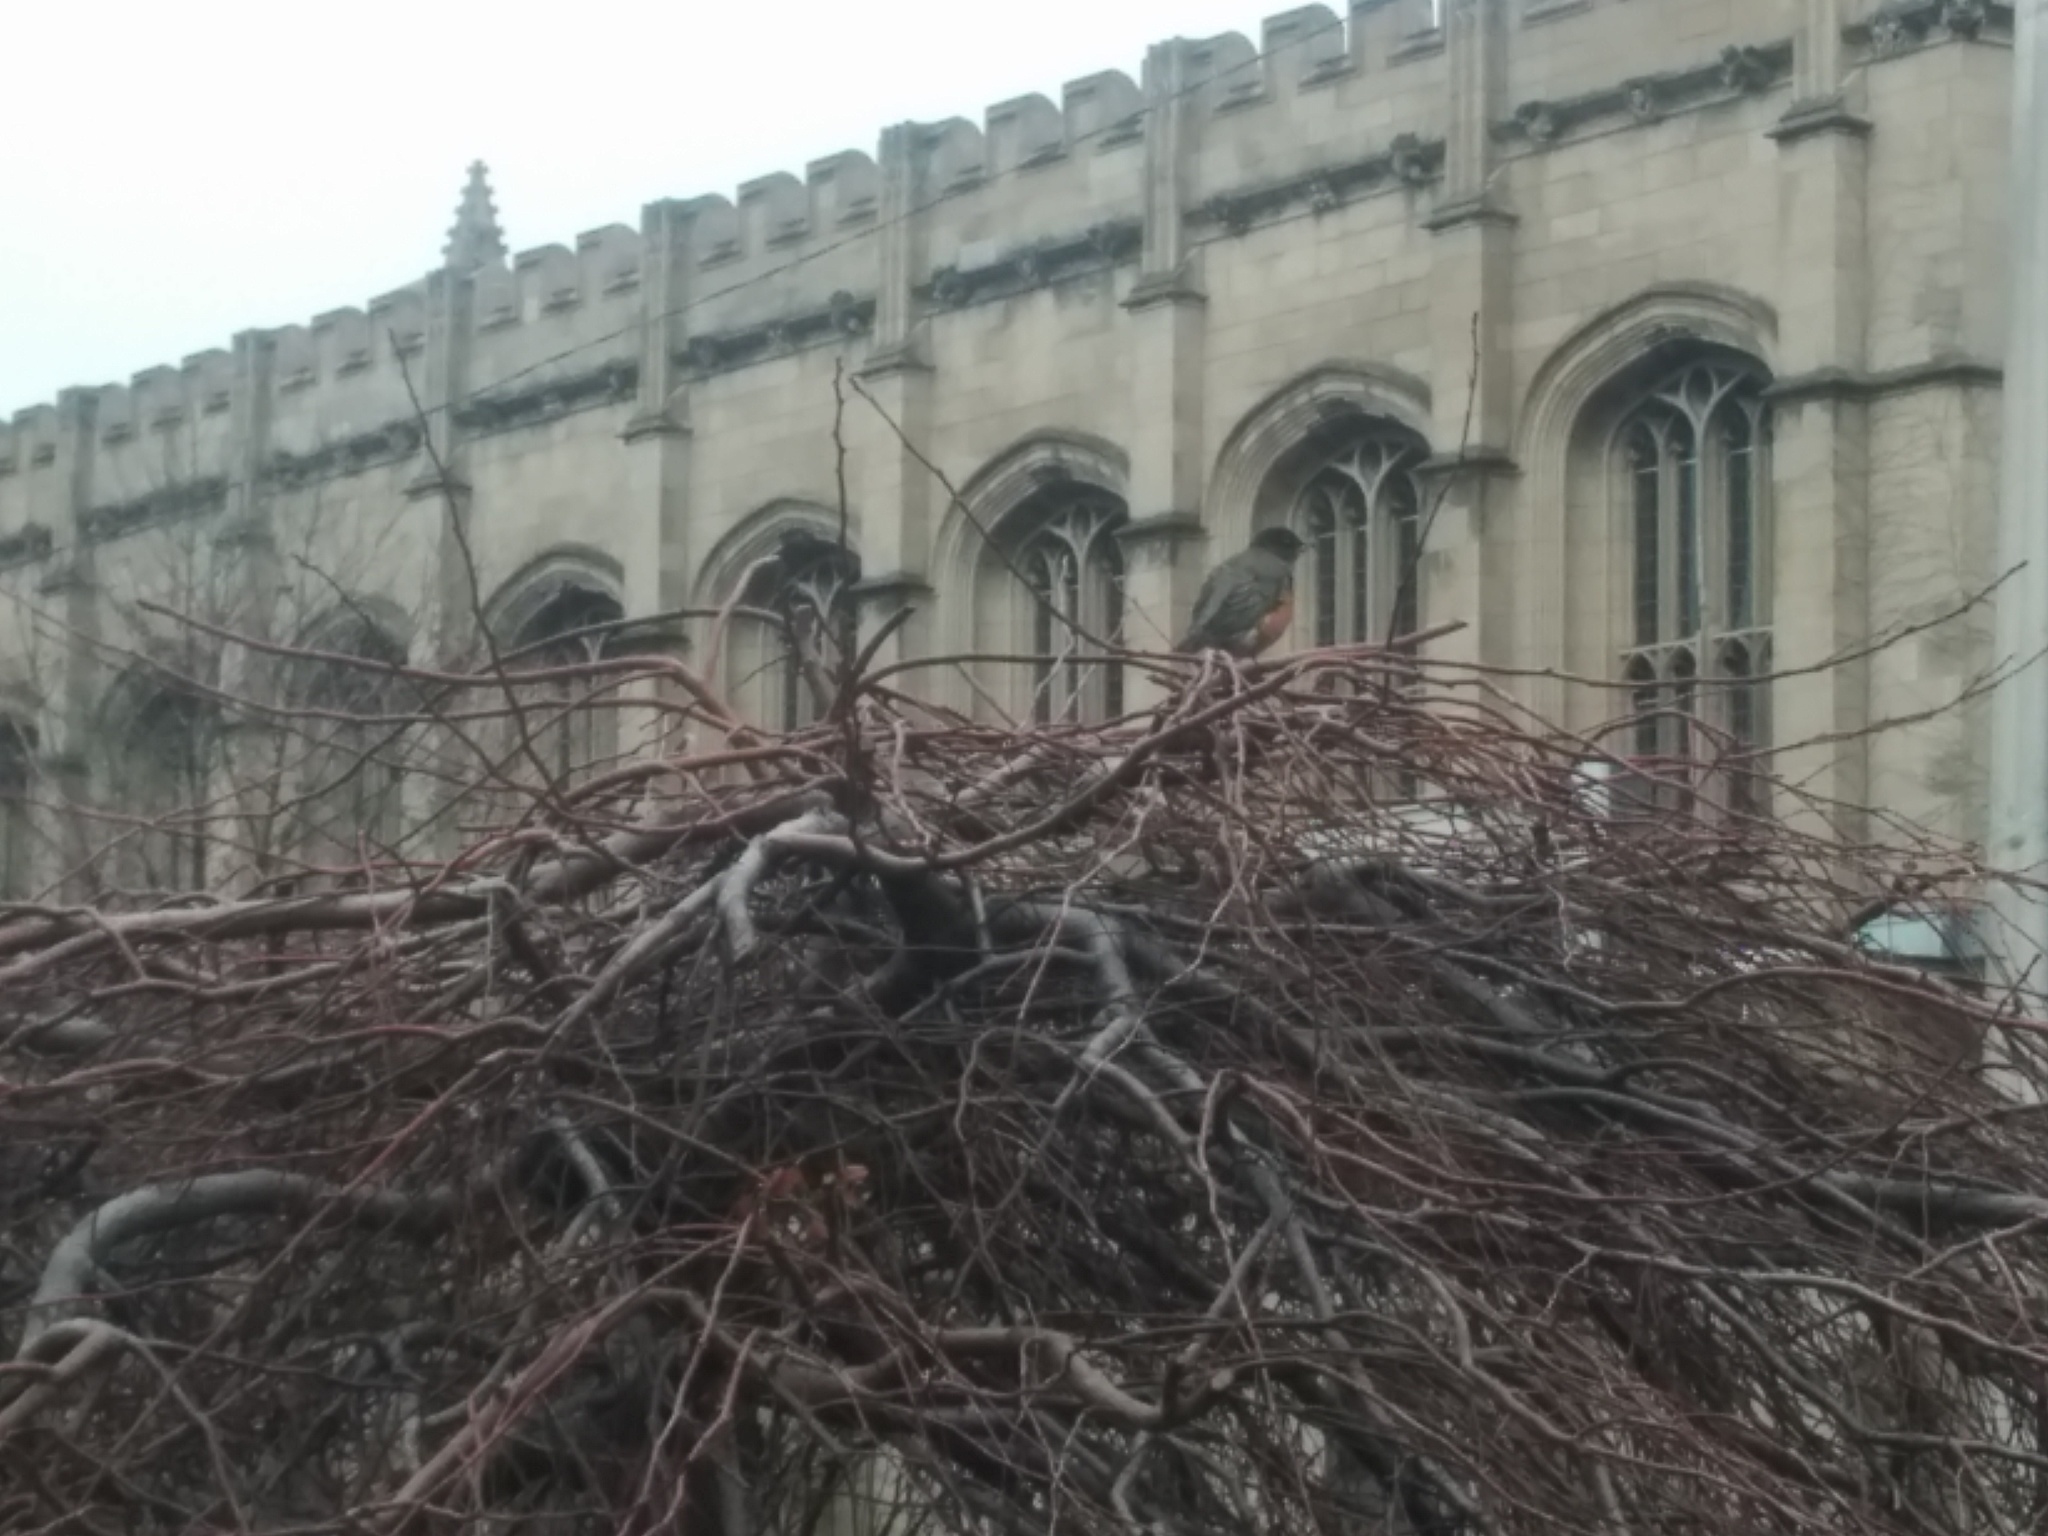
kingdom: Animalia
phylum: Chordata
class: Aves
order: Passeriformes
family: Turdidae
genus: Turdus
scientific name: Turdus migratorius
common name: American robin
